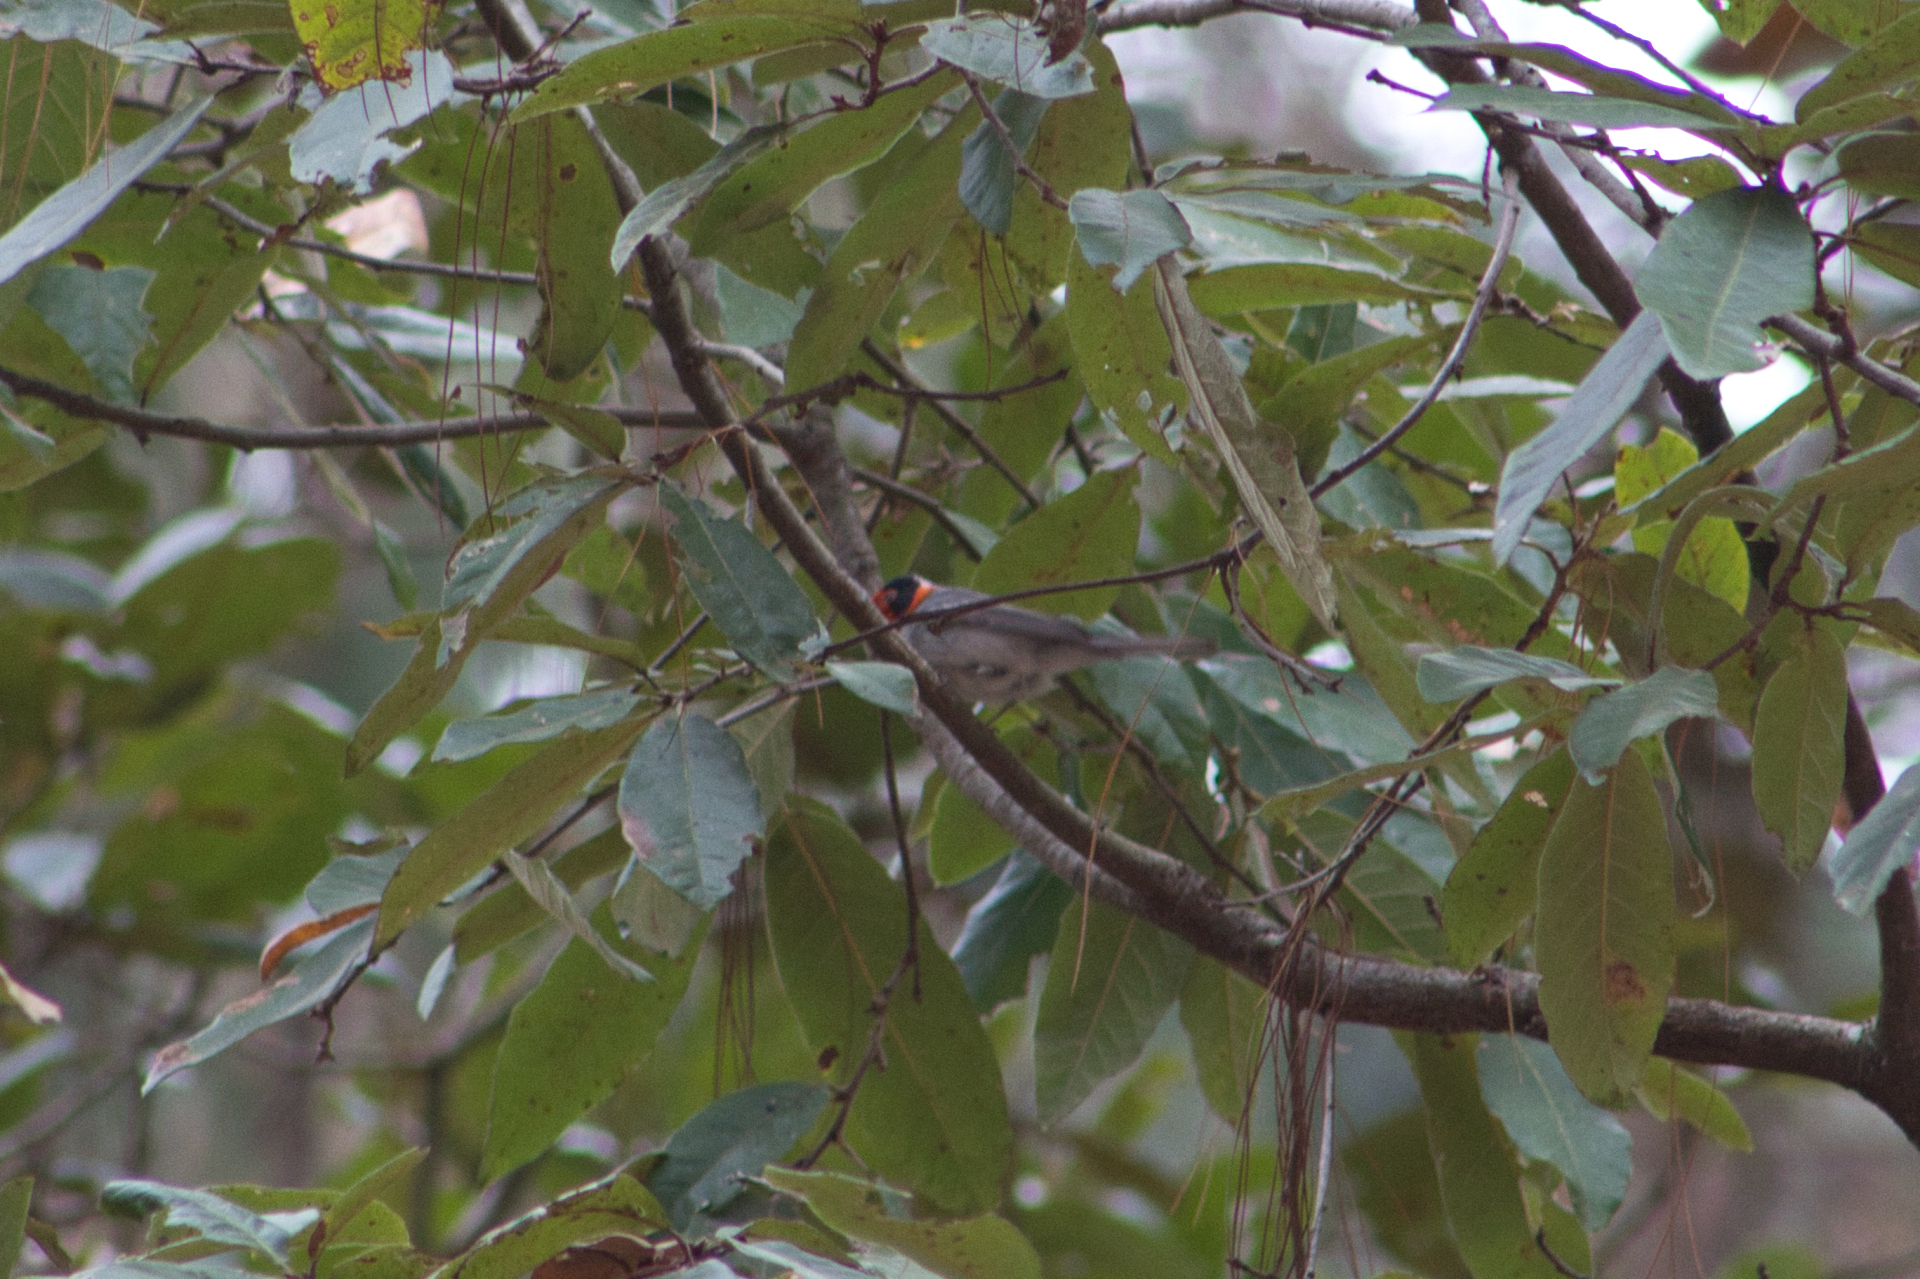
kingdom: Animalia
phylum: Chordata
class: Aves
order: Passeriformes
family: Parulidae
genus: Cardellina
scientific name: Cardellina rubrifrons
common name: Red-faced warbler
